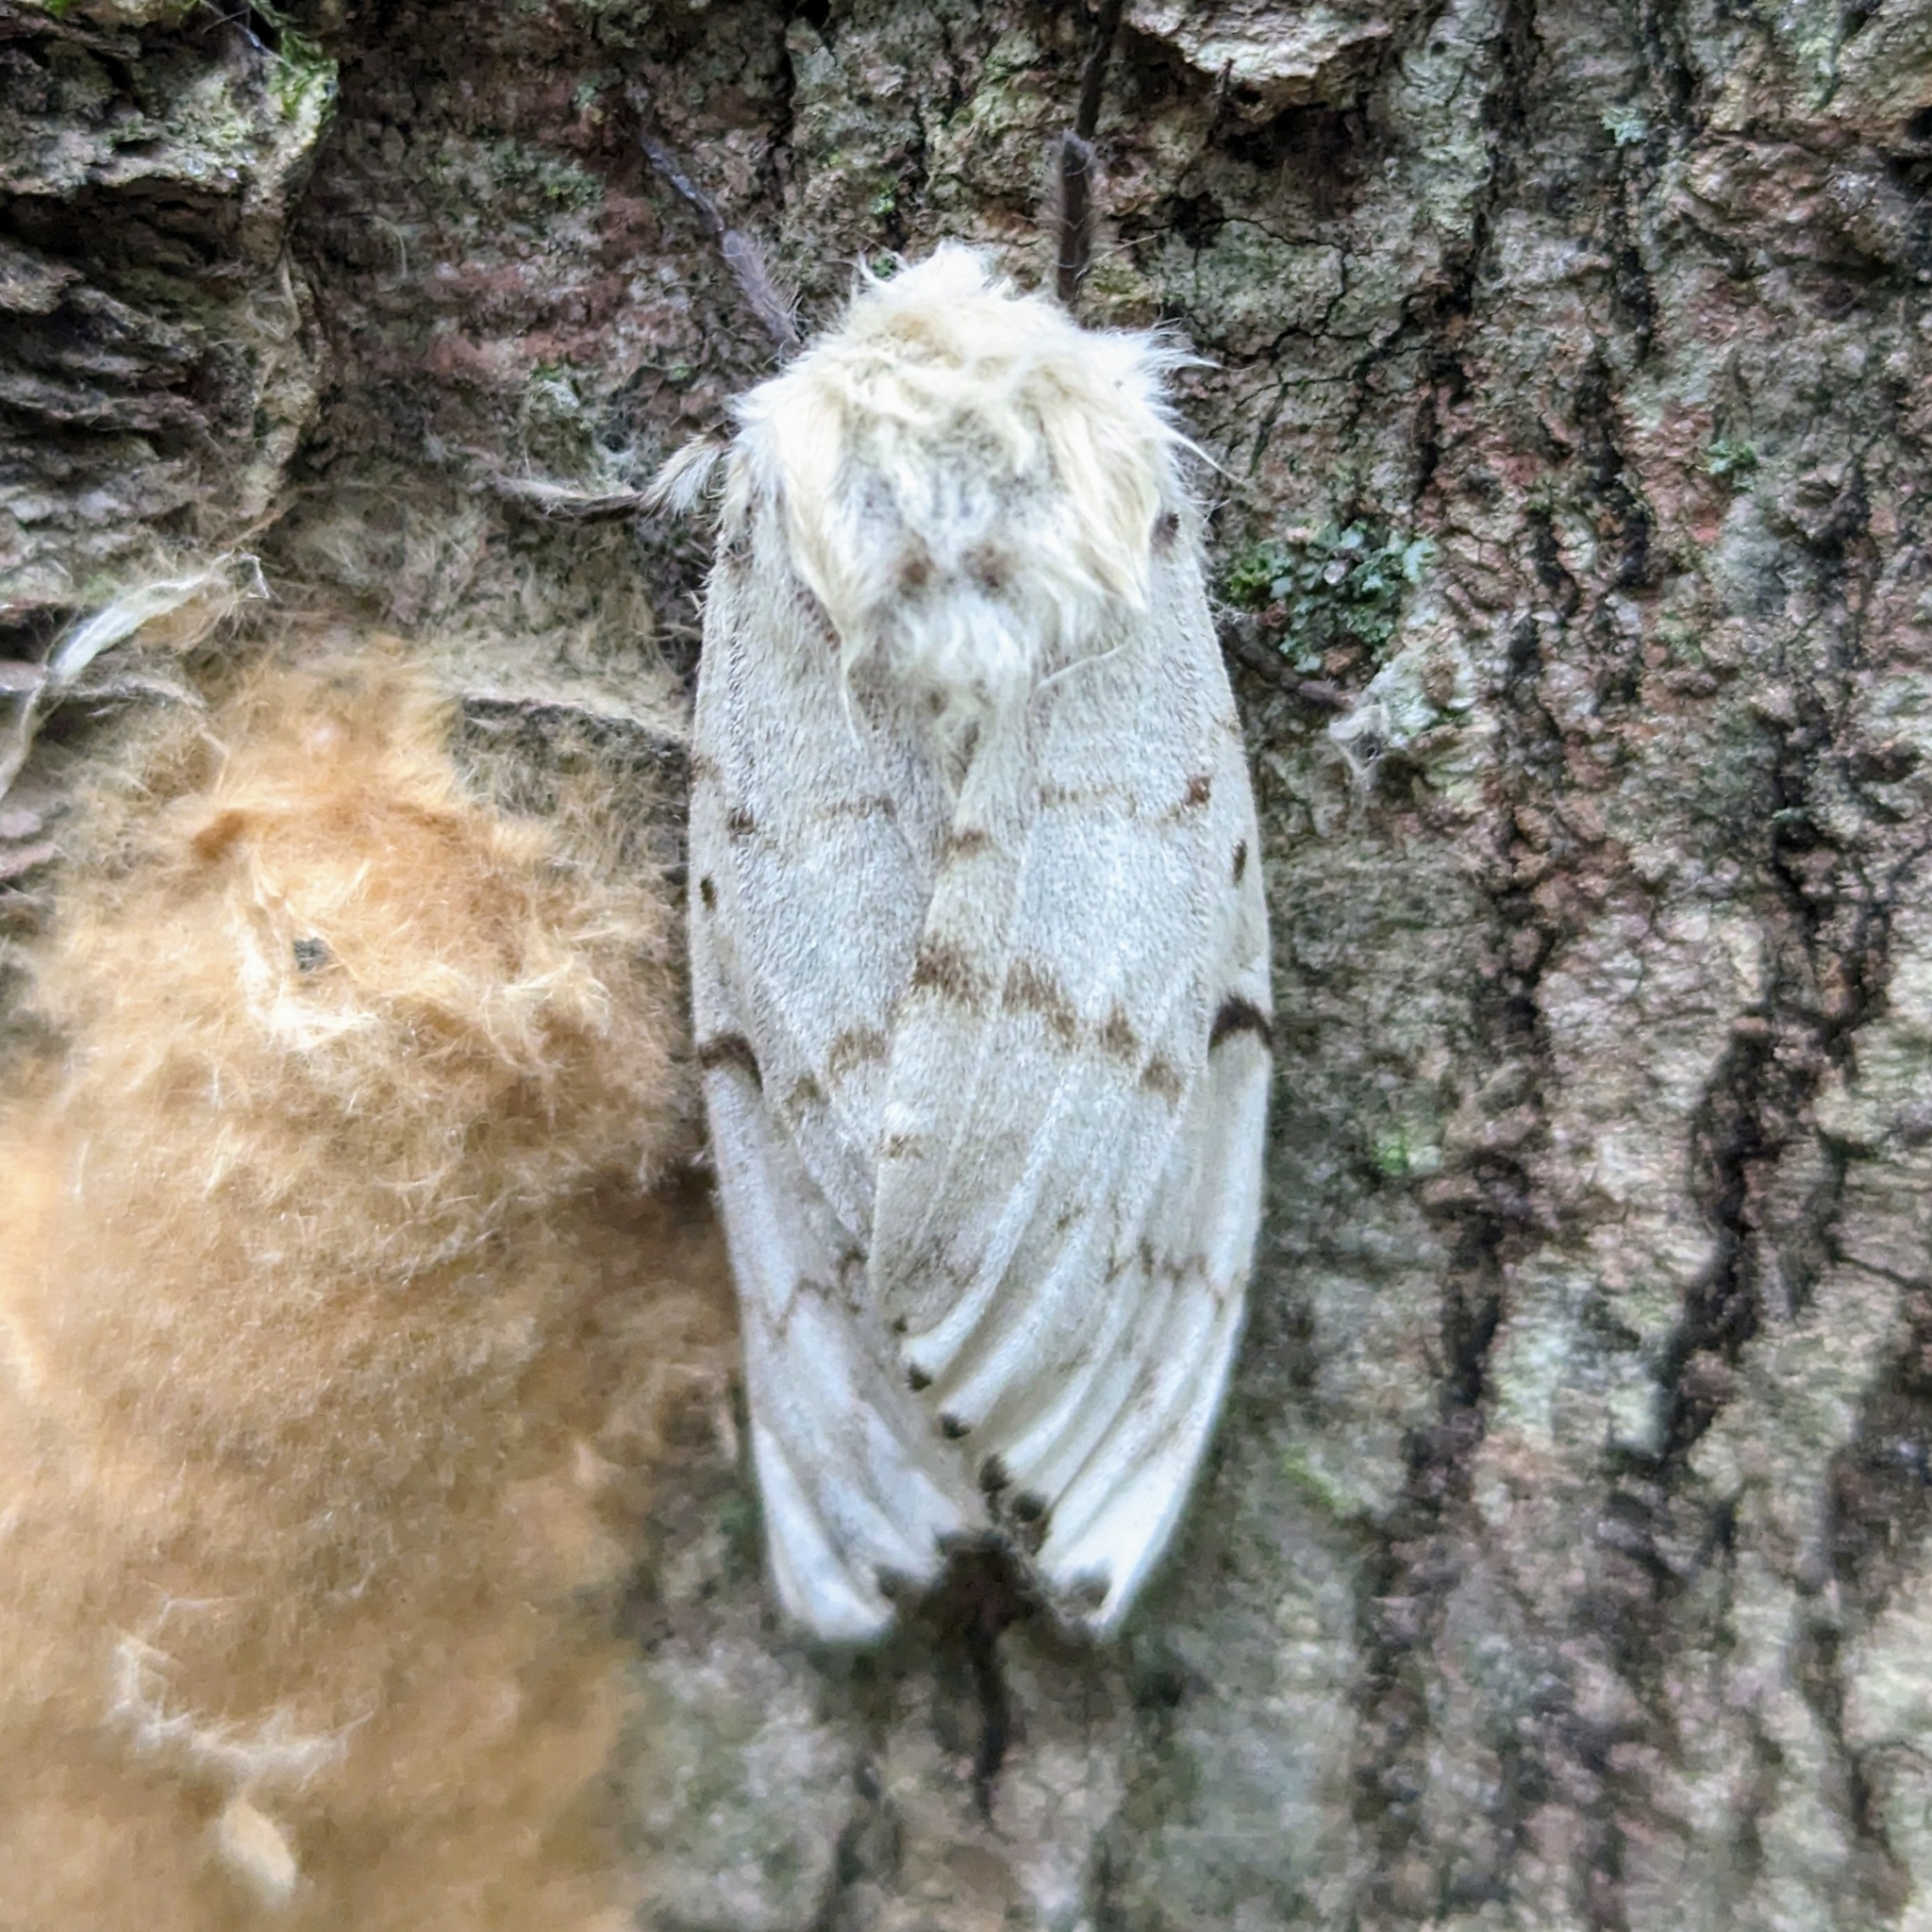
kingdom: Animalia
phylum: Arthropoda
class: Insecta
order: Lepidoptera
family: Erebidae
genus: Lymantria
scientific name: Lymantria dispar
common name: Gypsy moth
